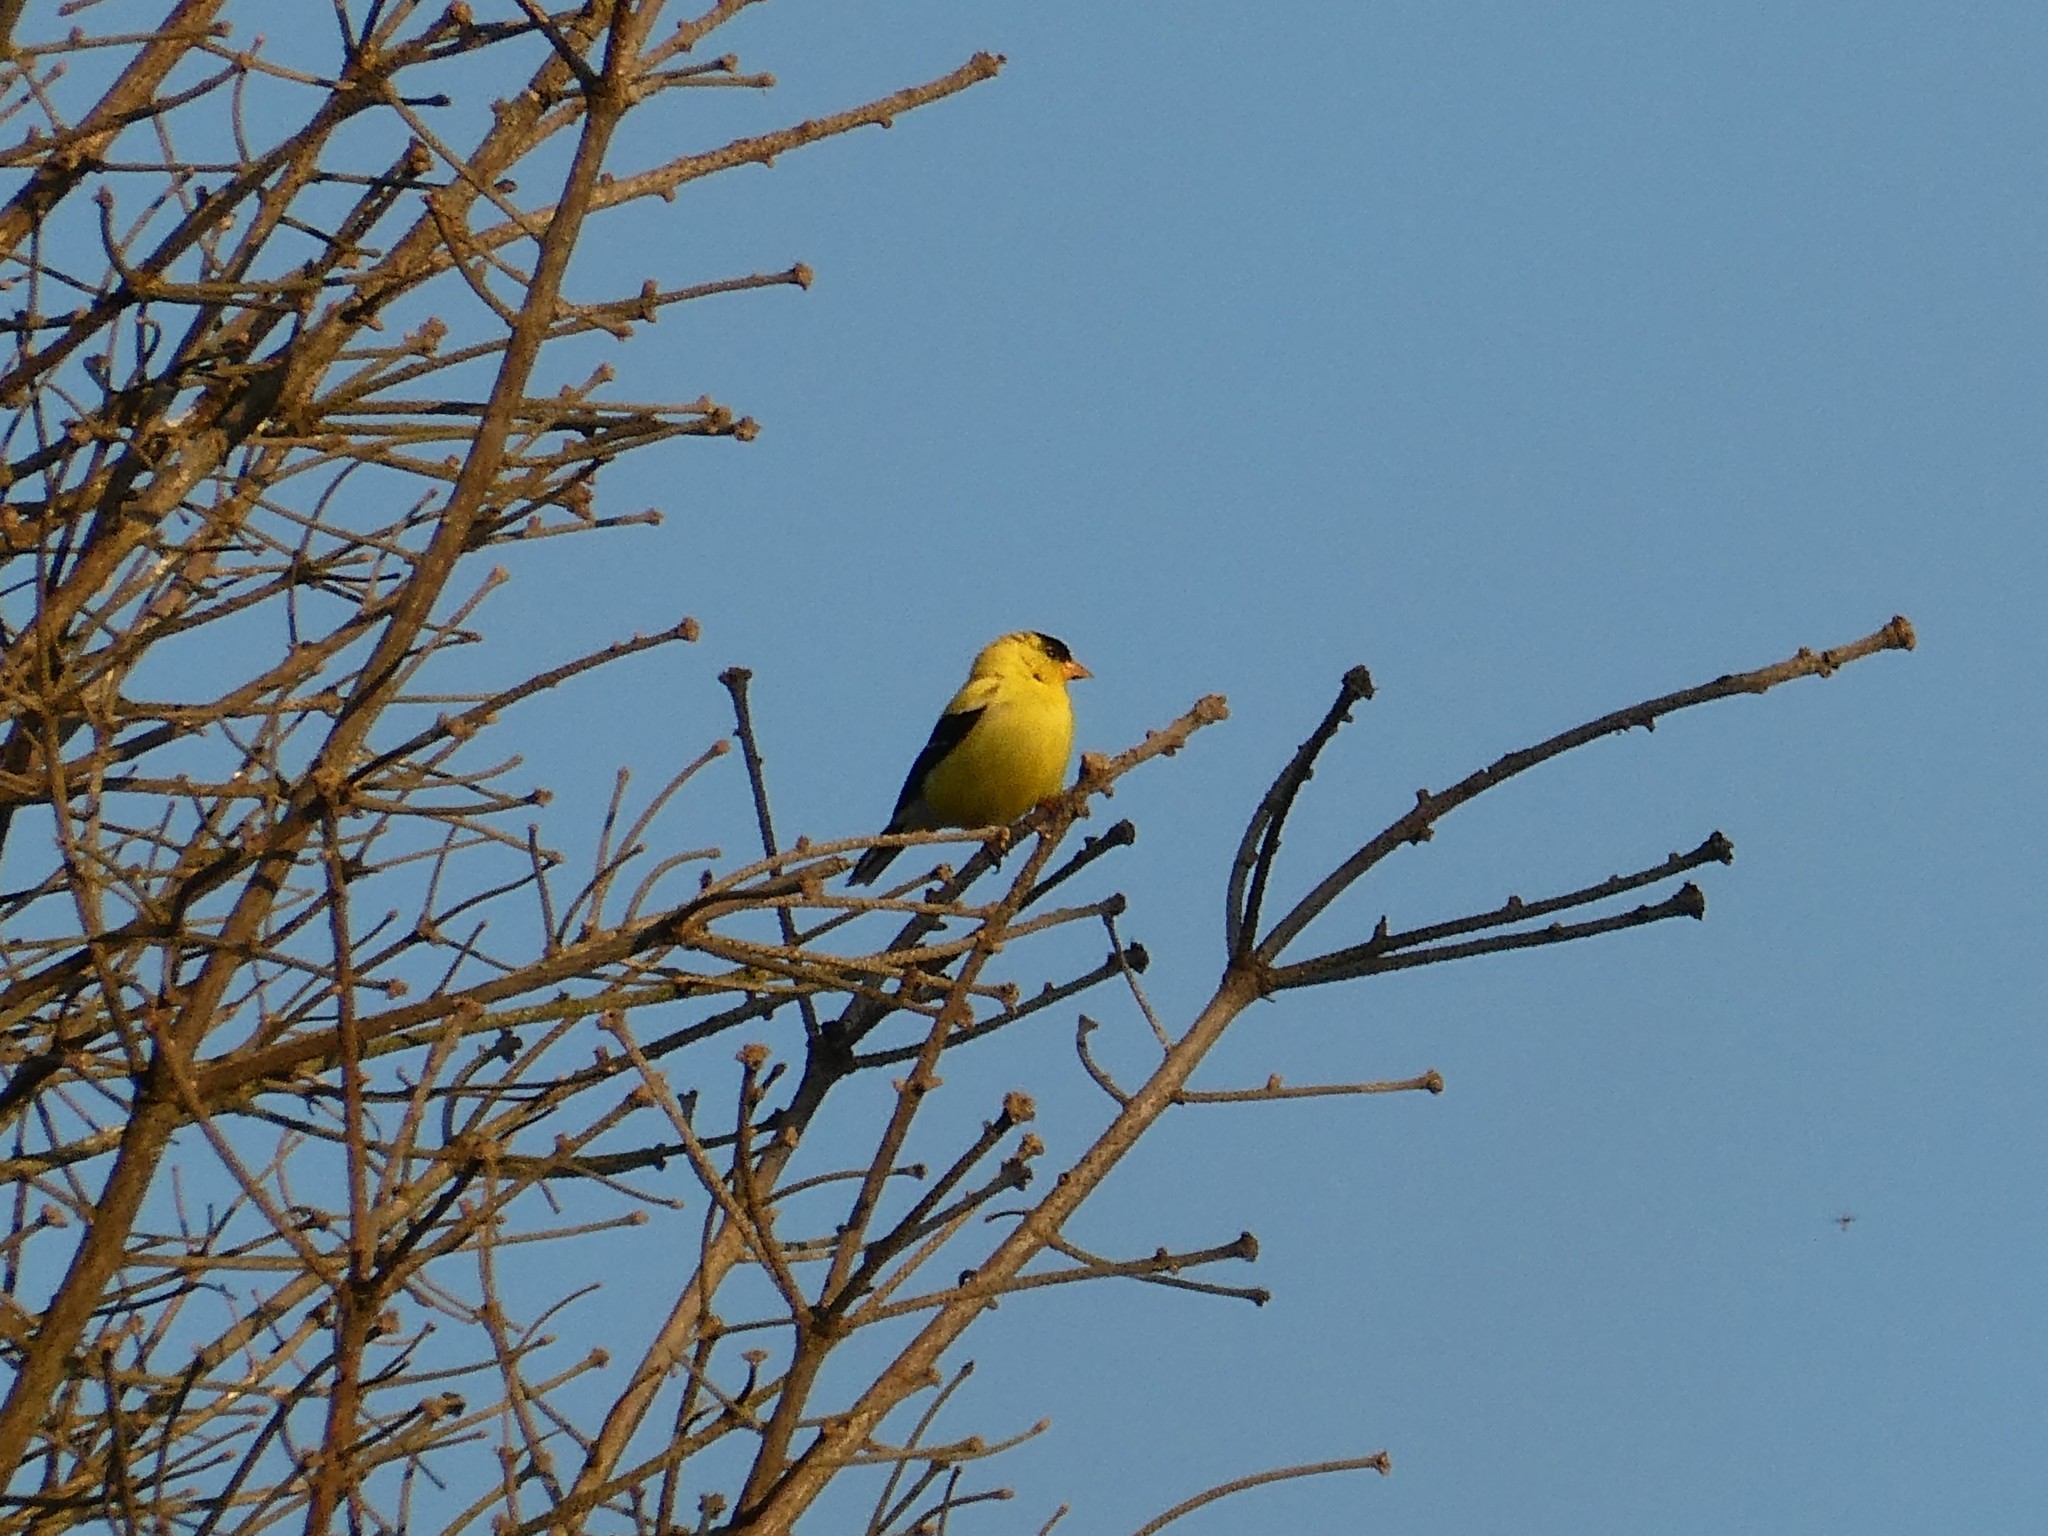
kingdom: Animalia
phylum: Chordata
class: Aves
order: Passeriformes
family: Fringillidae
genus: Spinus
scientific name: Spinus tristis
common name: American goldfinch
